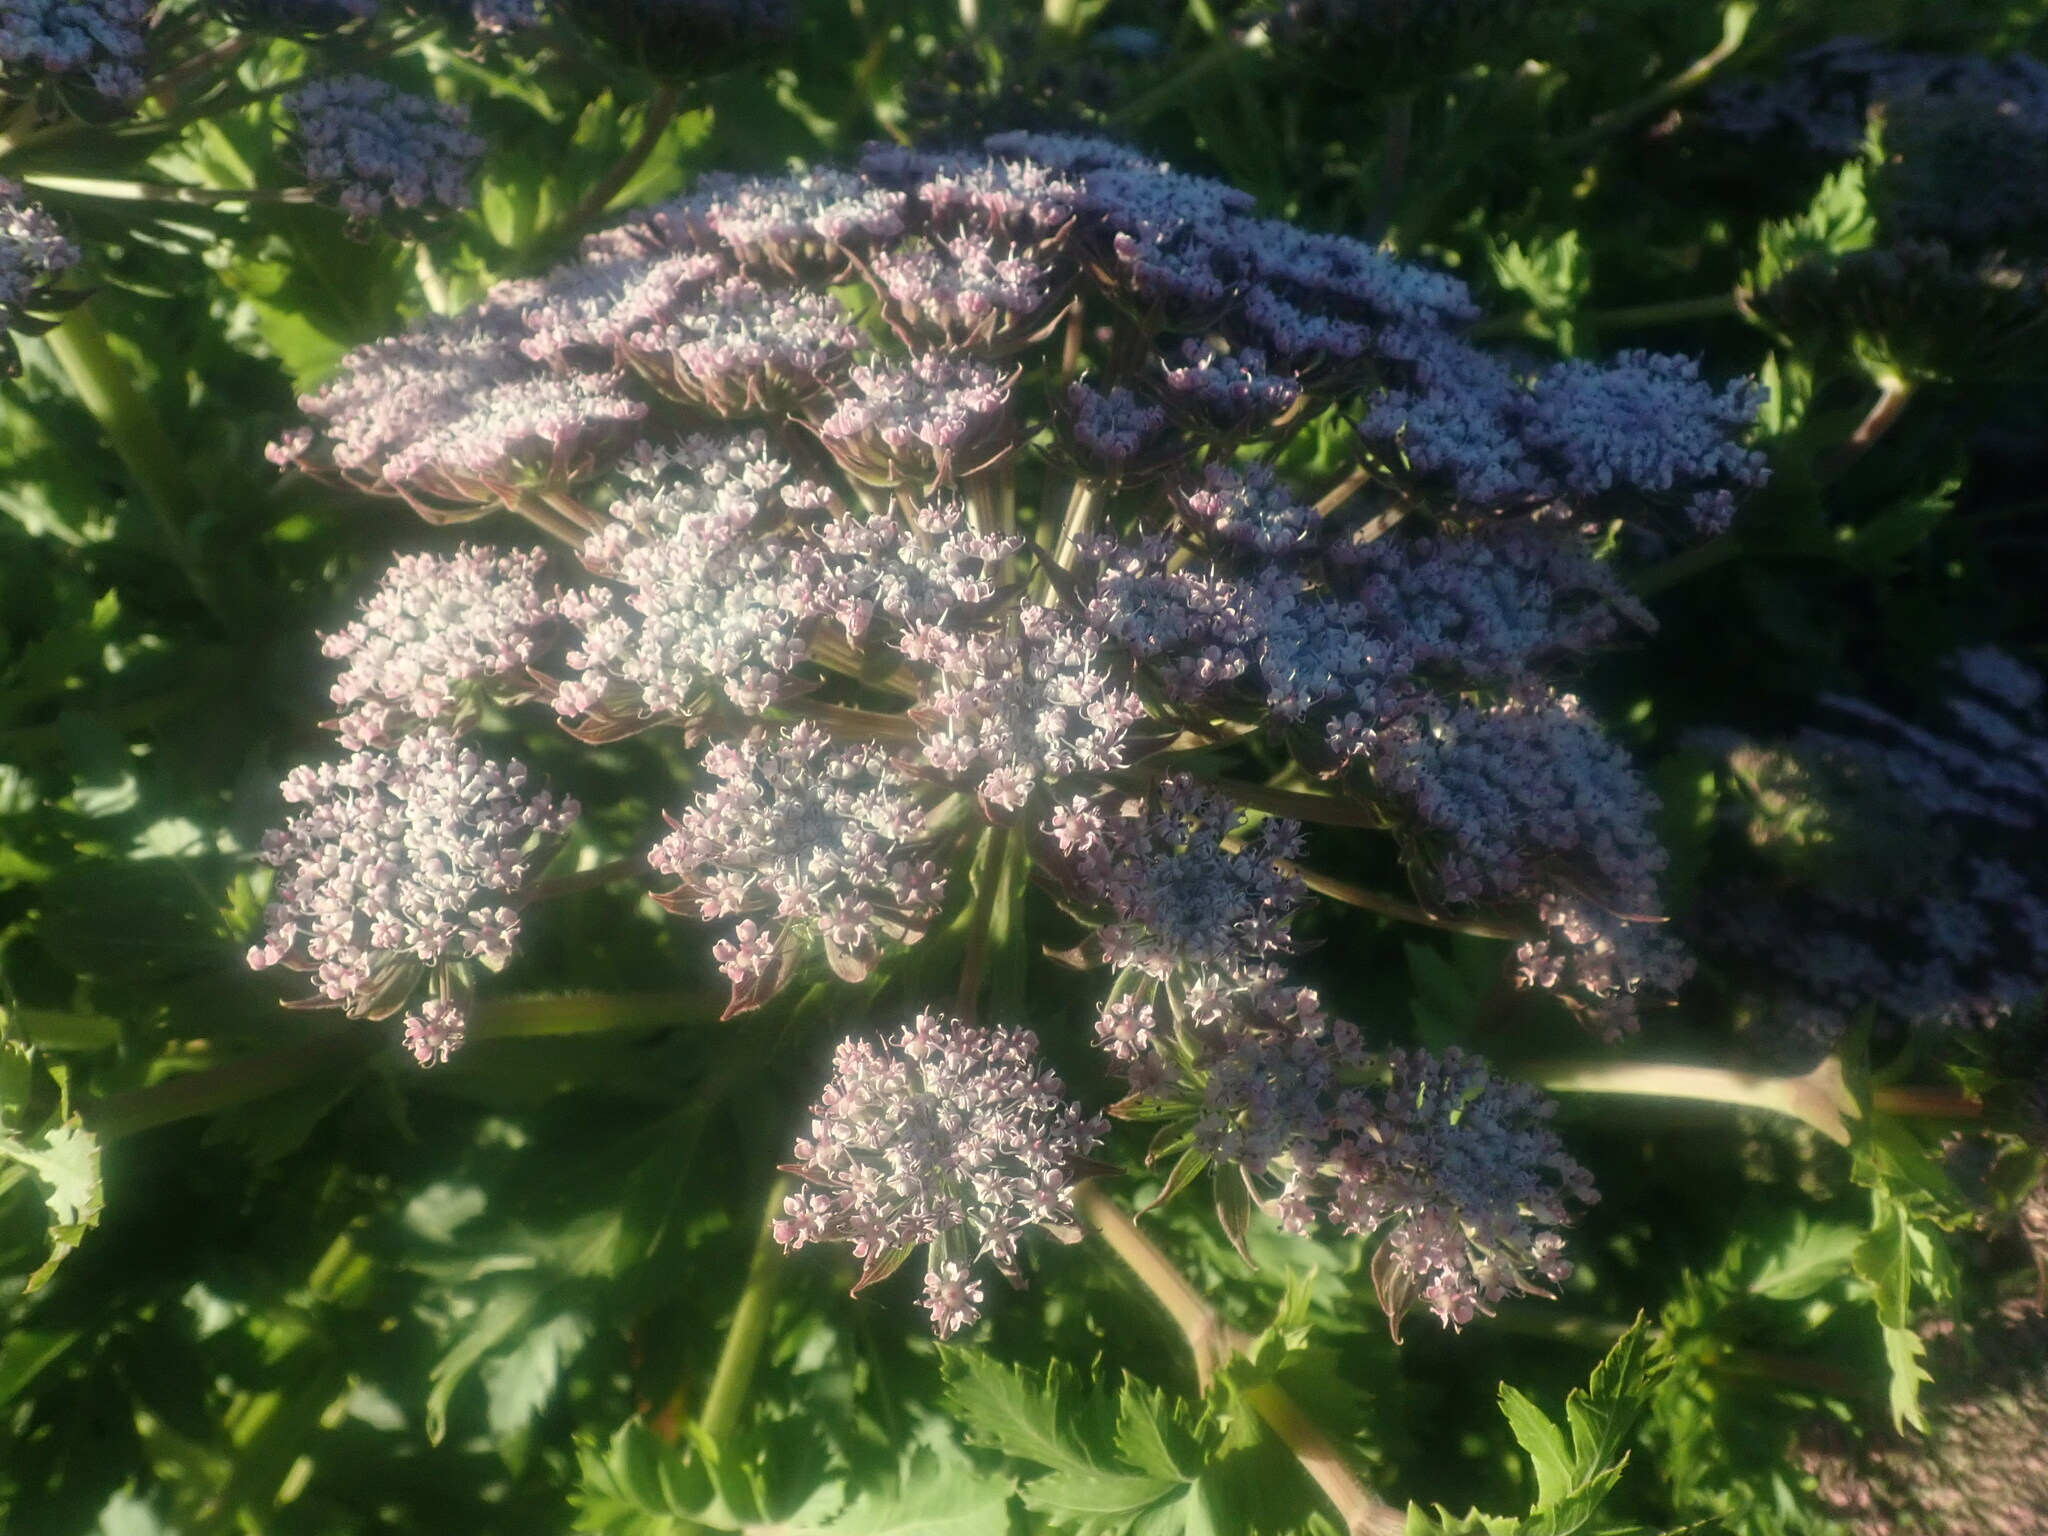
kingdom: Plantae
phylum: Tracheophyta
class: Magnoliopsida
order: Apiales
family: Apiaceae
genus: Daucus
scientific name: Daucus decipiens
